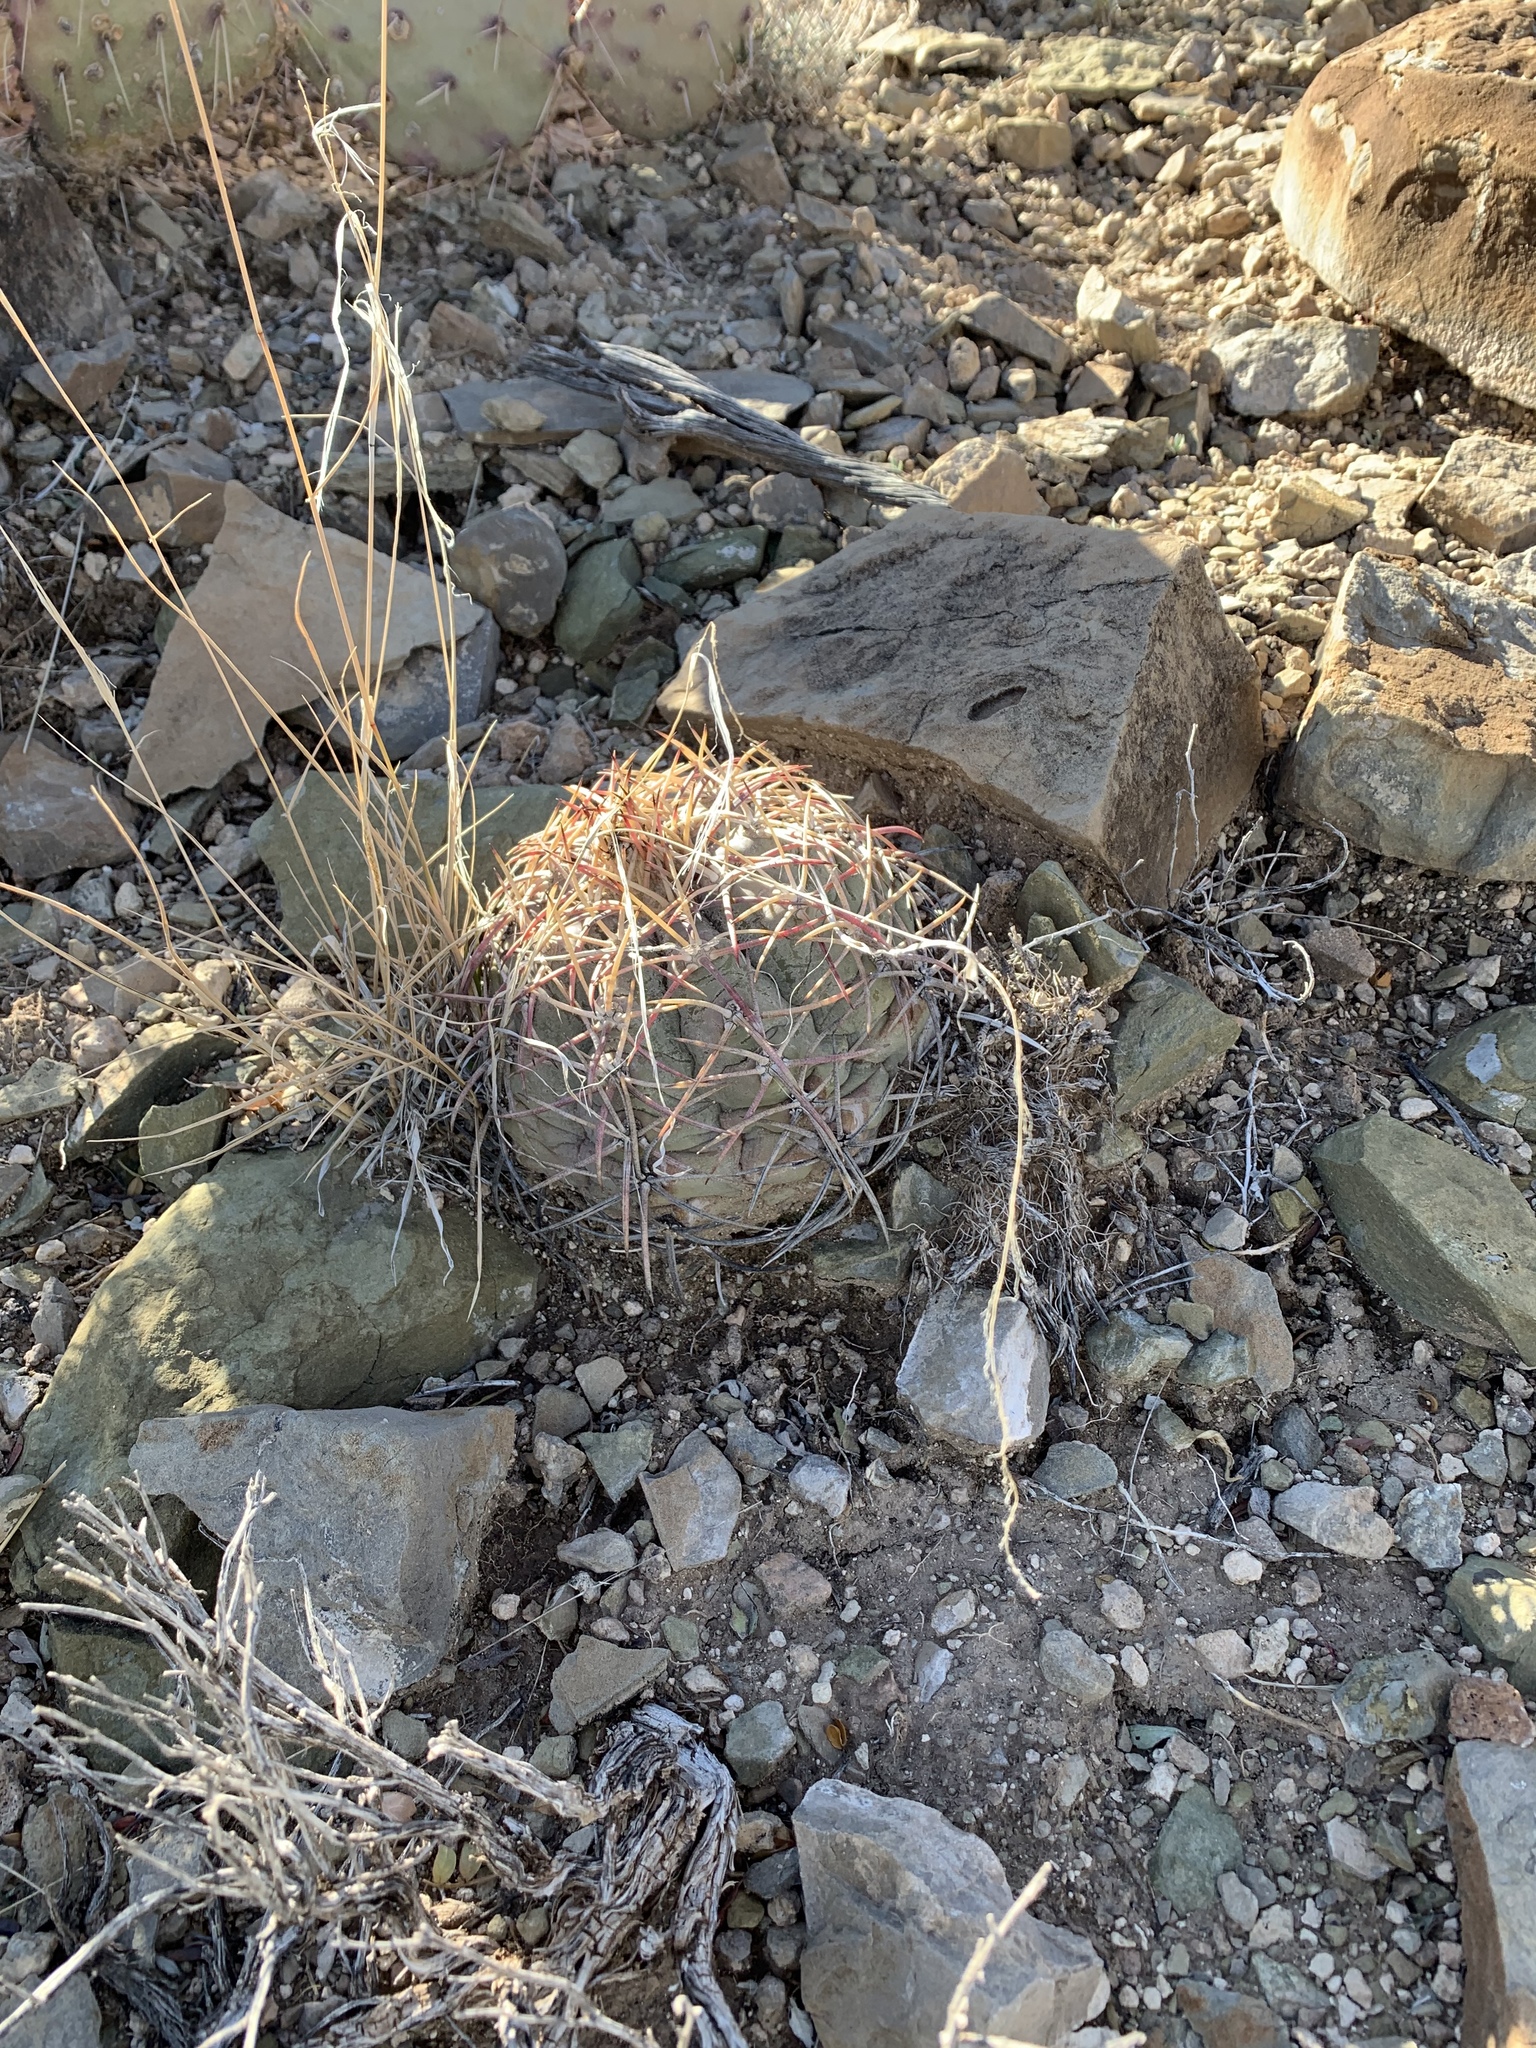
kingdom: Plantae
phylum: Tracheophyta
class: Magnoliopsida
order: Caryophyllales
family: Cactaceae
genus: Echinocactus
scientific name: Echinocactus horizonthalonius
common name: Devilshead
